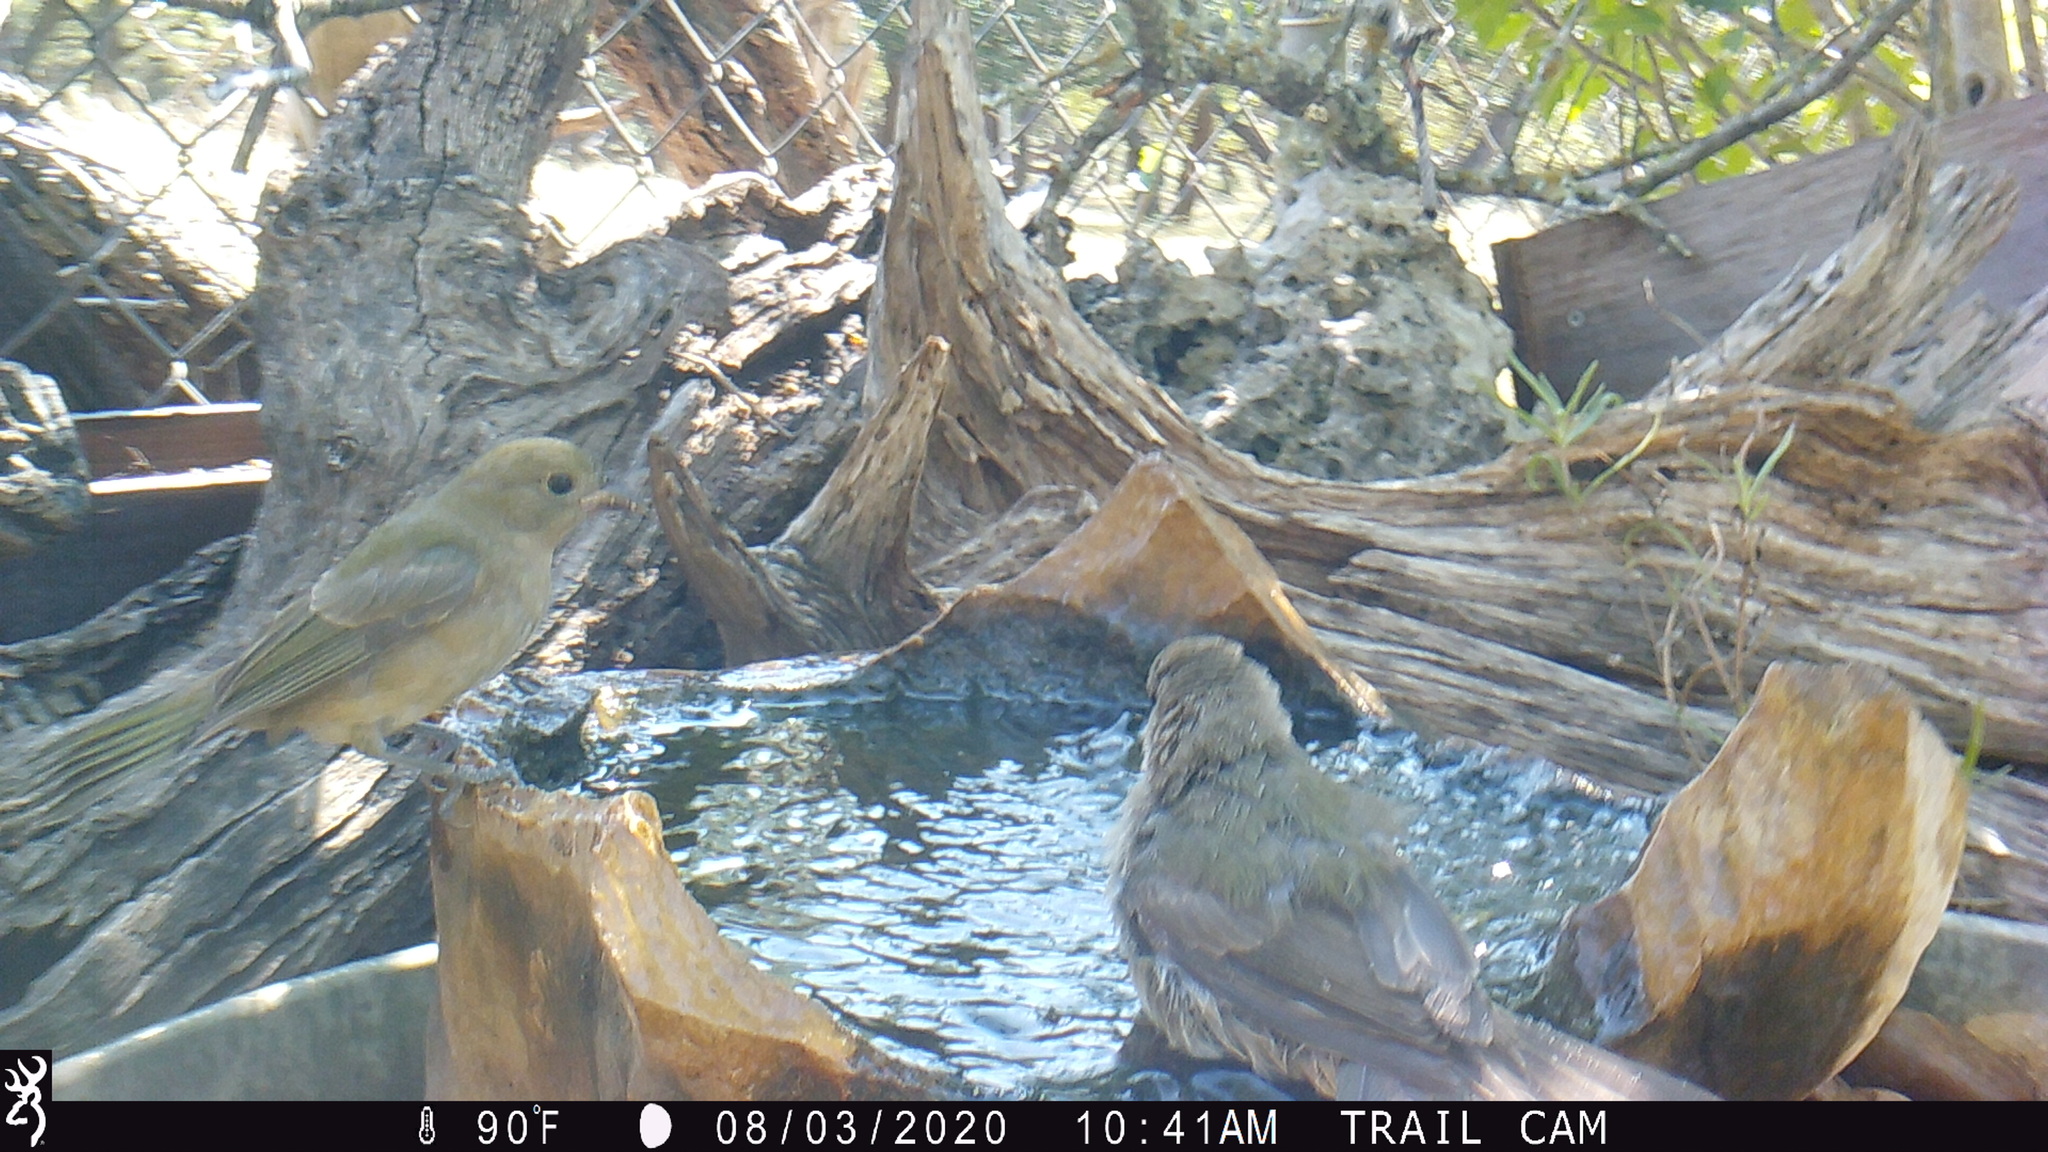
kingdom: Animalia
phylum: Chordata
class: Aves
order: Passeriformes
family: Cardinalidae
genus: Passerina
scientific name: Passerina ciris
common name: Painted bunting
